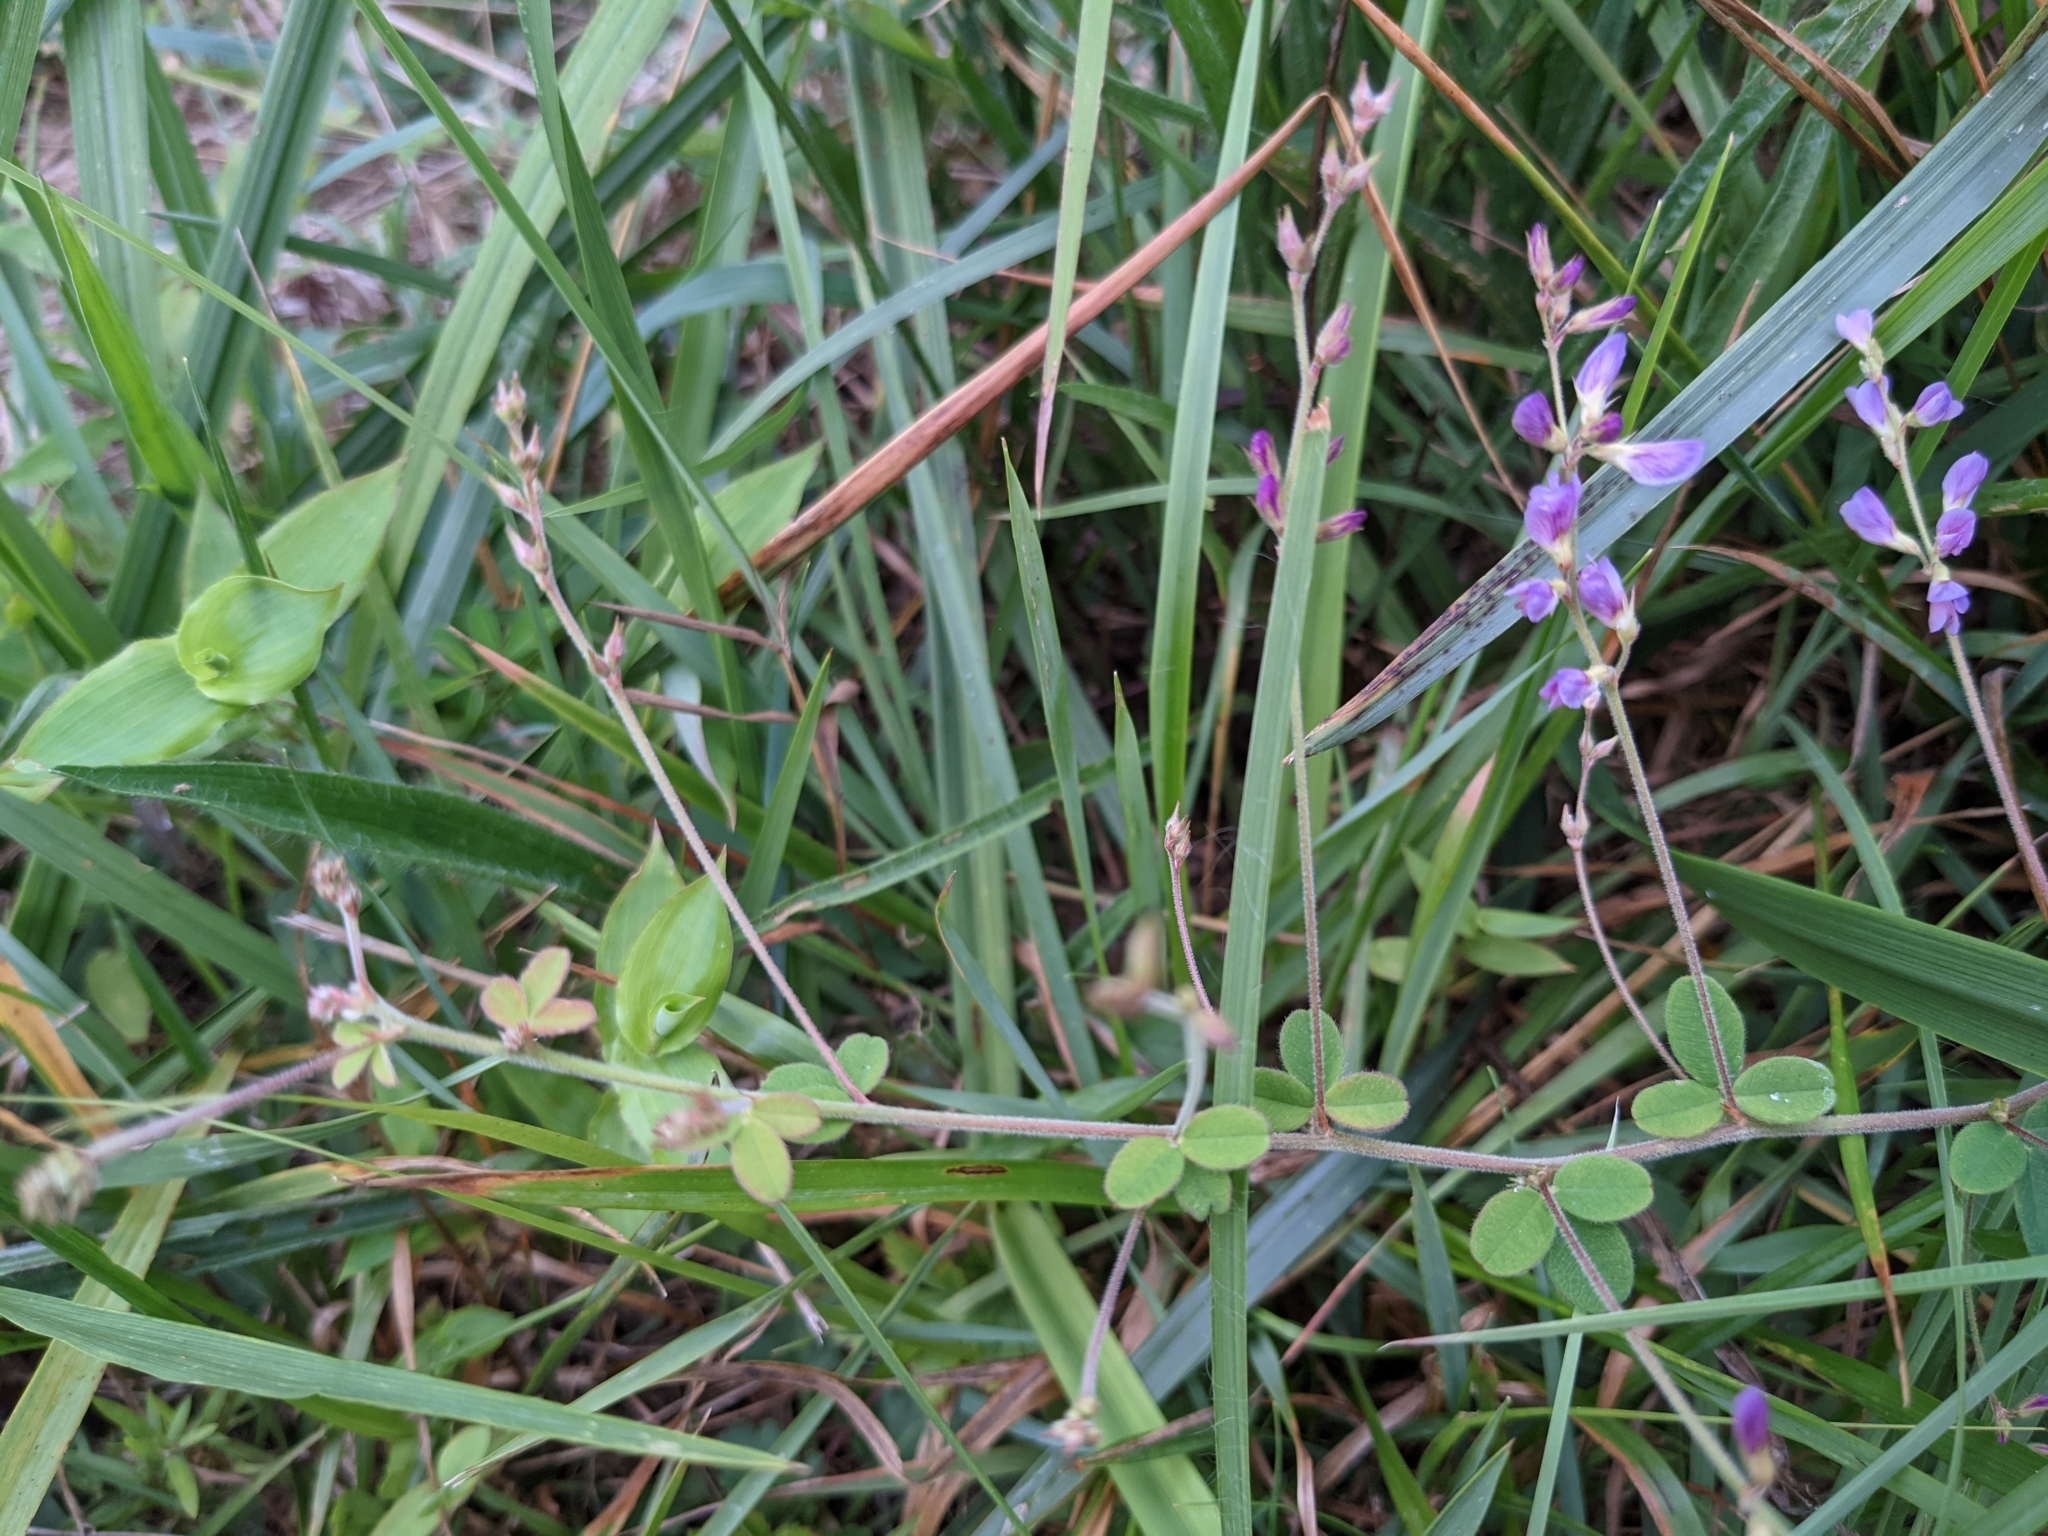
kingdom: Plantae
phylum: Tracheophyta
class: Magnoliopsida
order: Fabales
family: Fabaceae
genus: Lespedeza
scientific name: Lespedeza procumbens
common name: Downy trailing bush-clover
